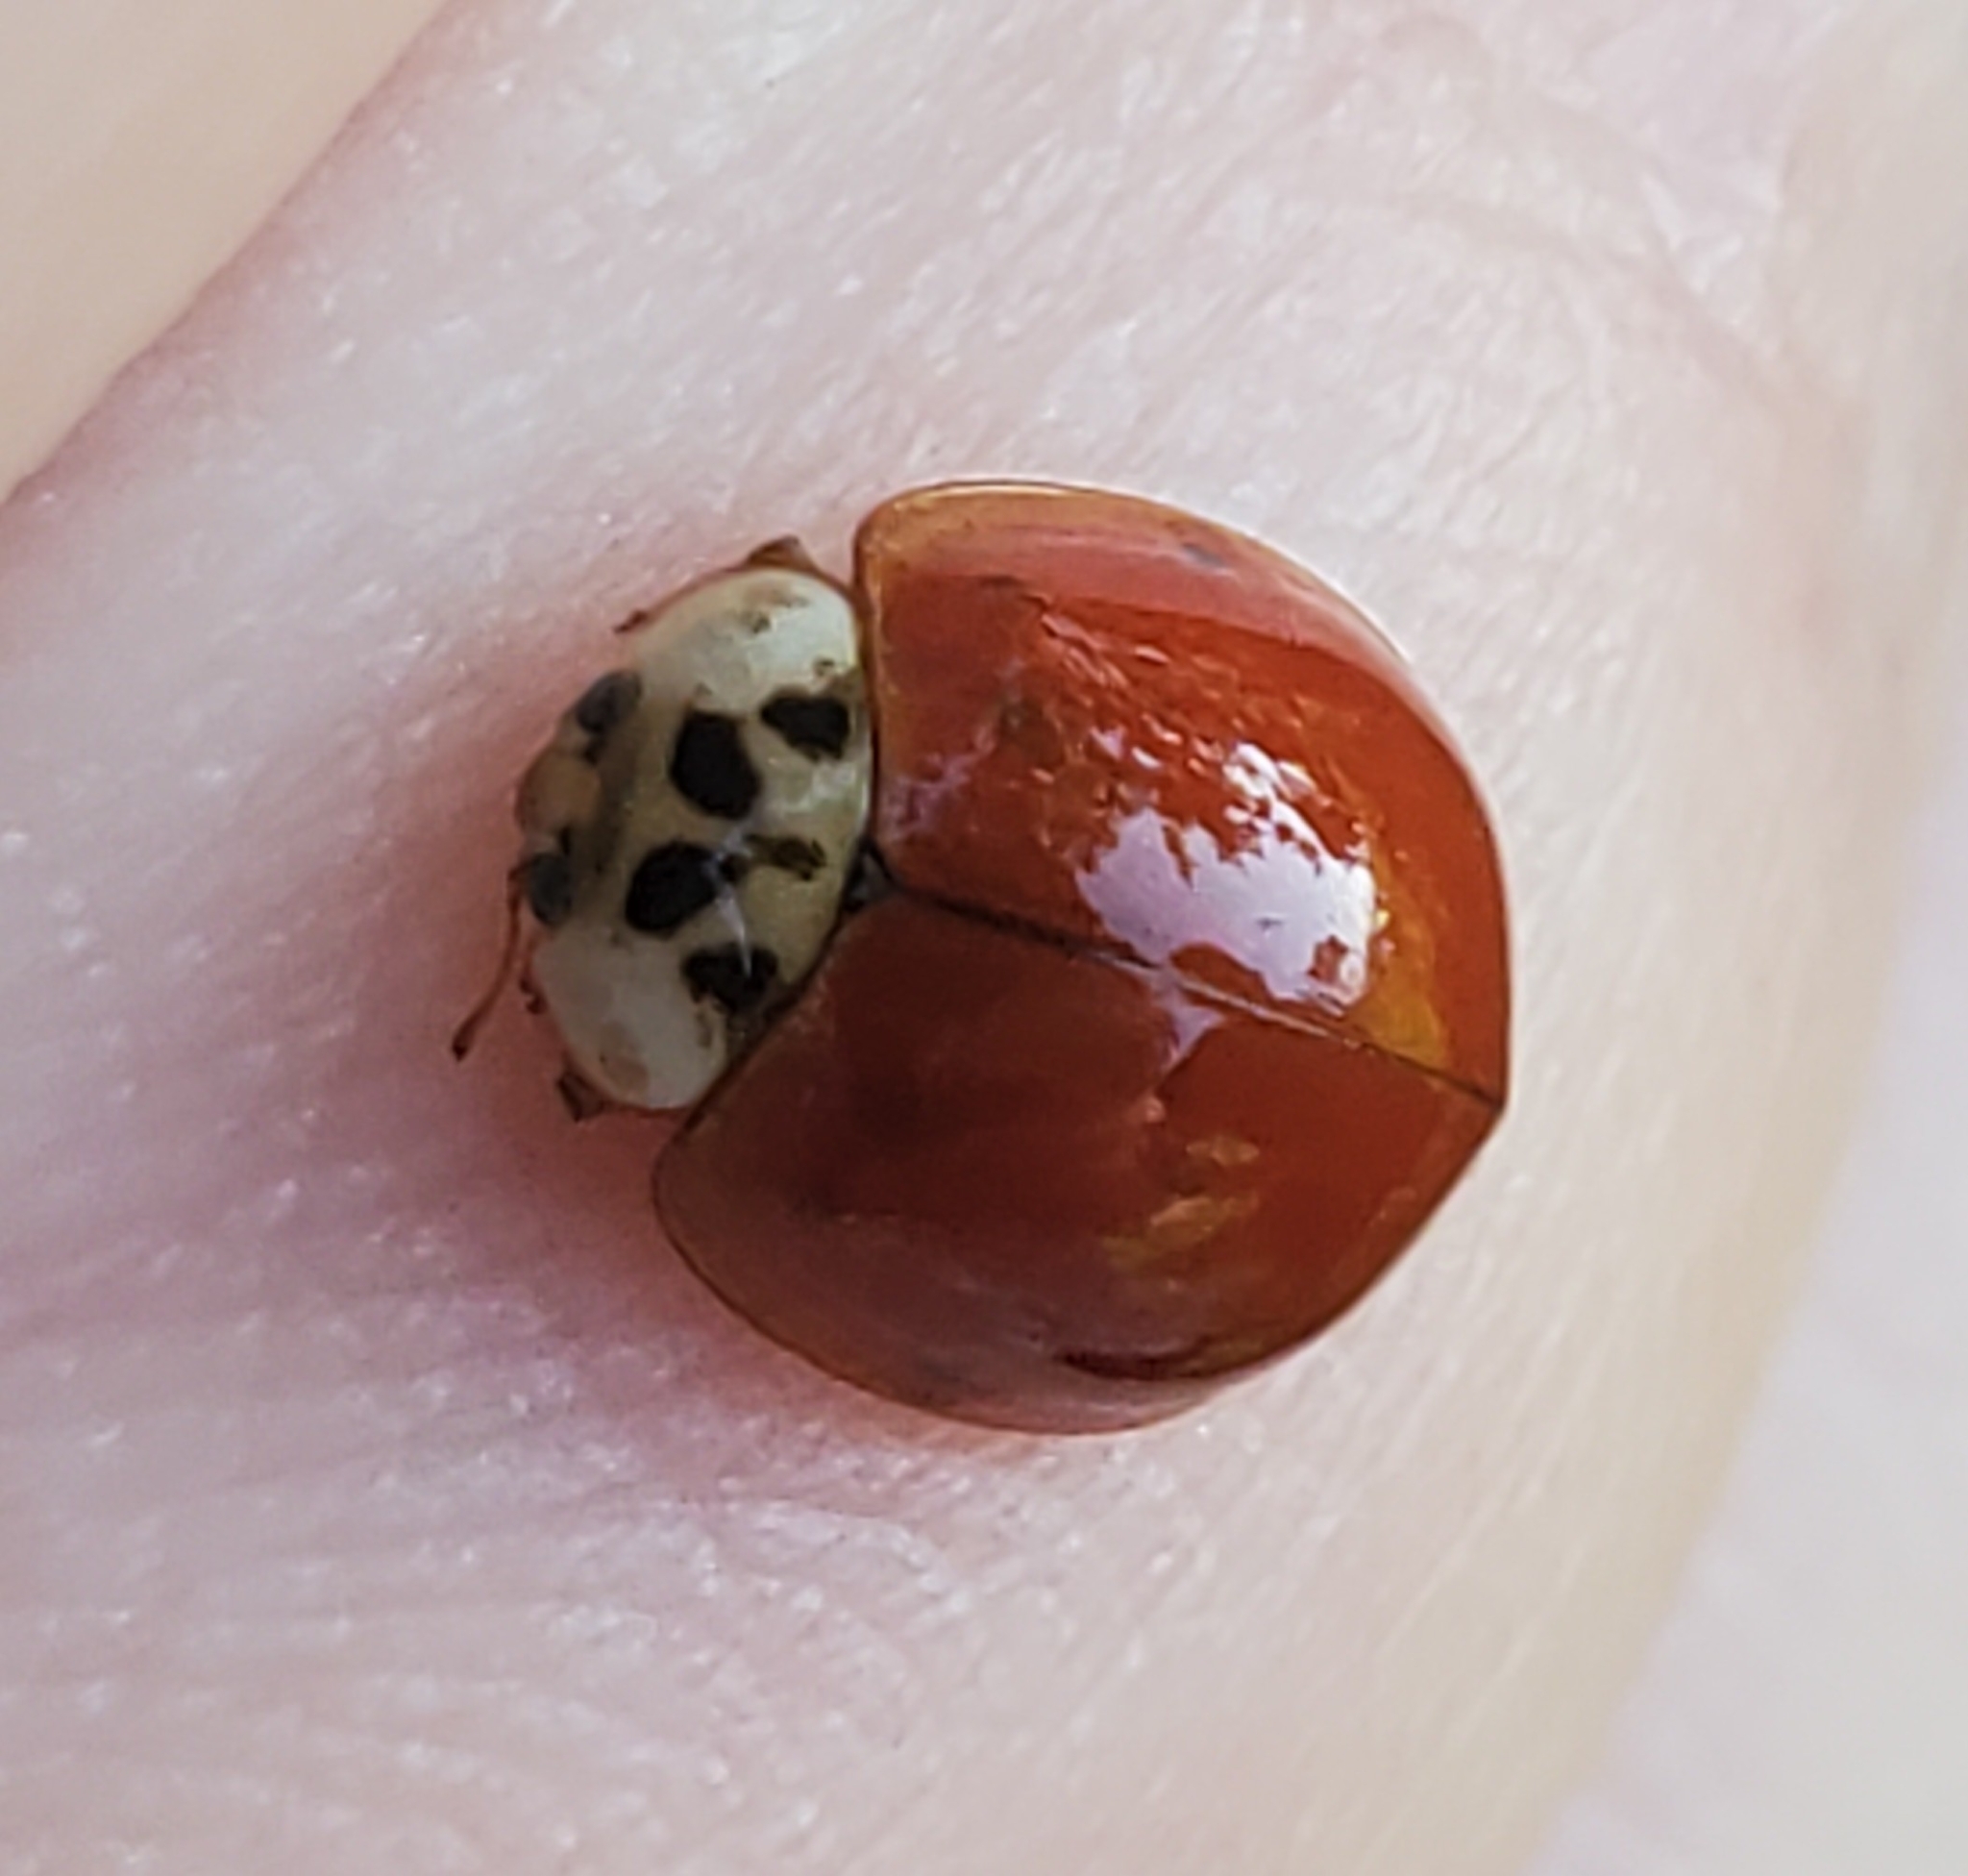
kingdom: Animalia
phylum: Arthropoda
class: Insecta
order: Coleoptera
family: Coccinellidae
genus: Harmonia
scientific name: Harmonia axyridis
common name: Harlequin ladybird
